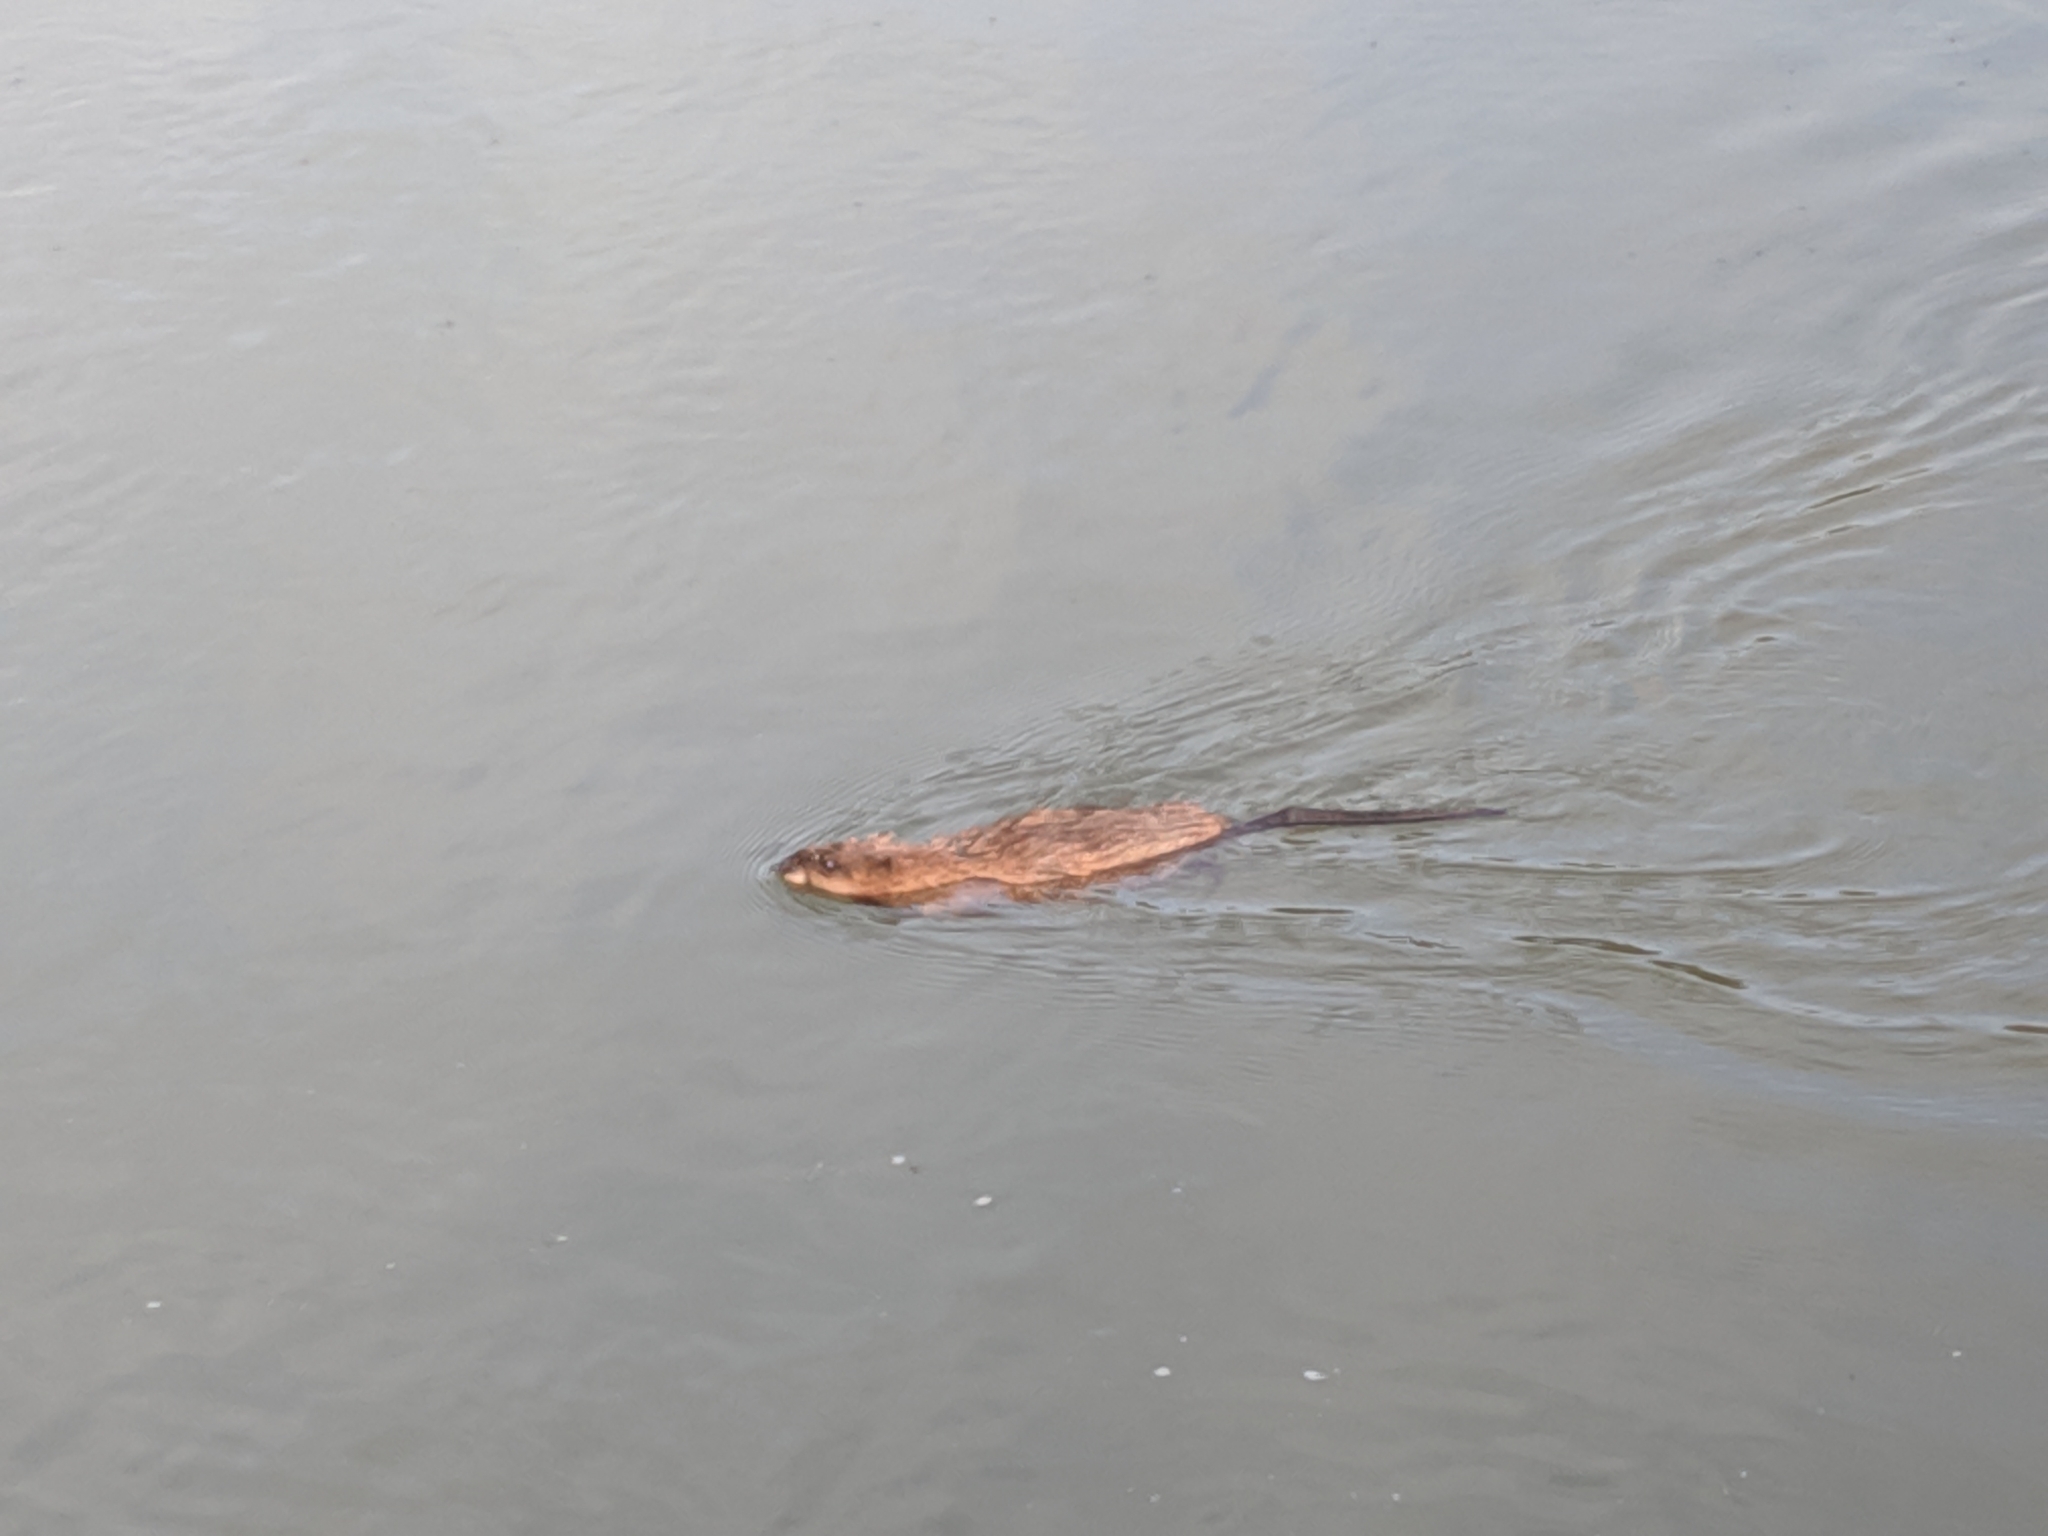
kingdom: Animalia
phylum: Chordata
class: Mammalia
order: Rodentia
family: Cricetidae
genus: Ondatra
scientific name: Ondatra zibethicus
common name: Muskrat
